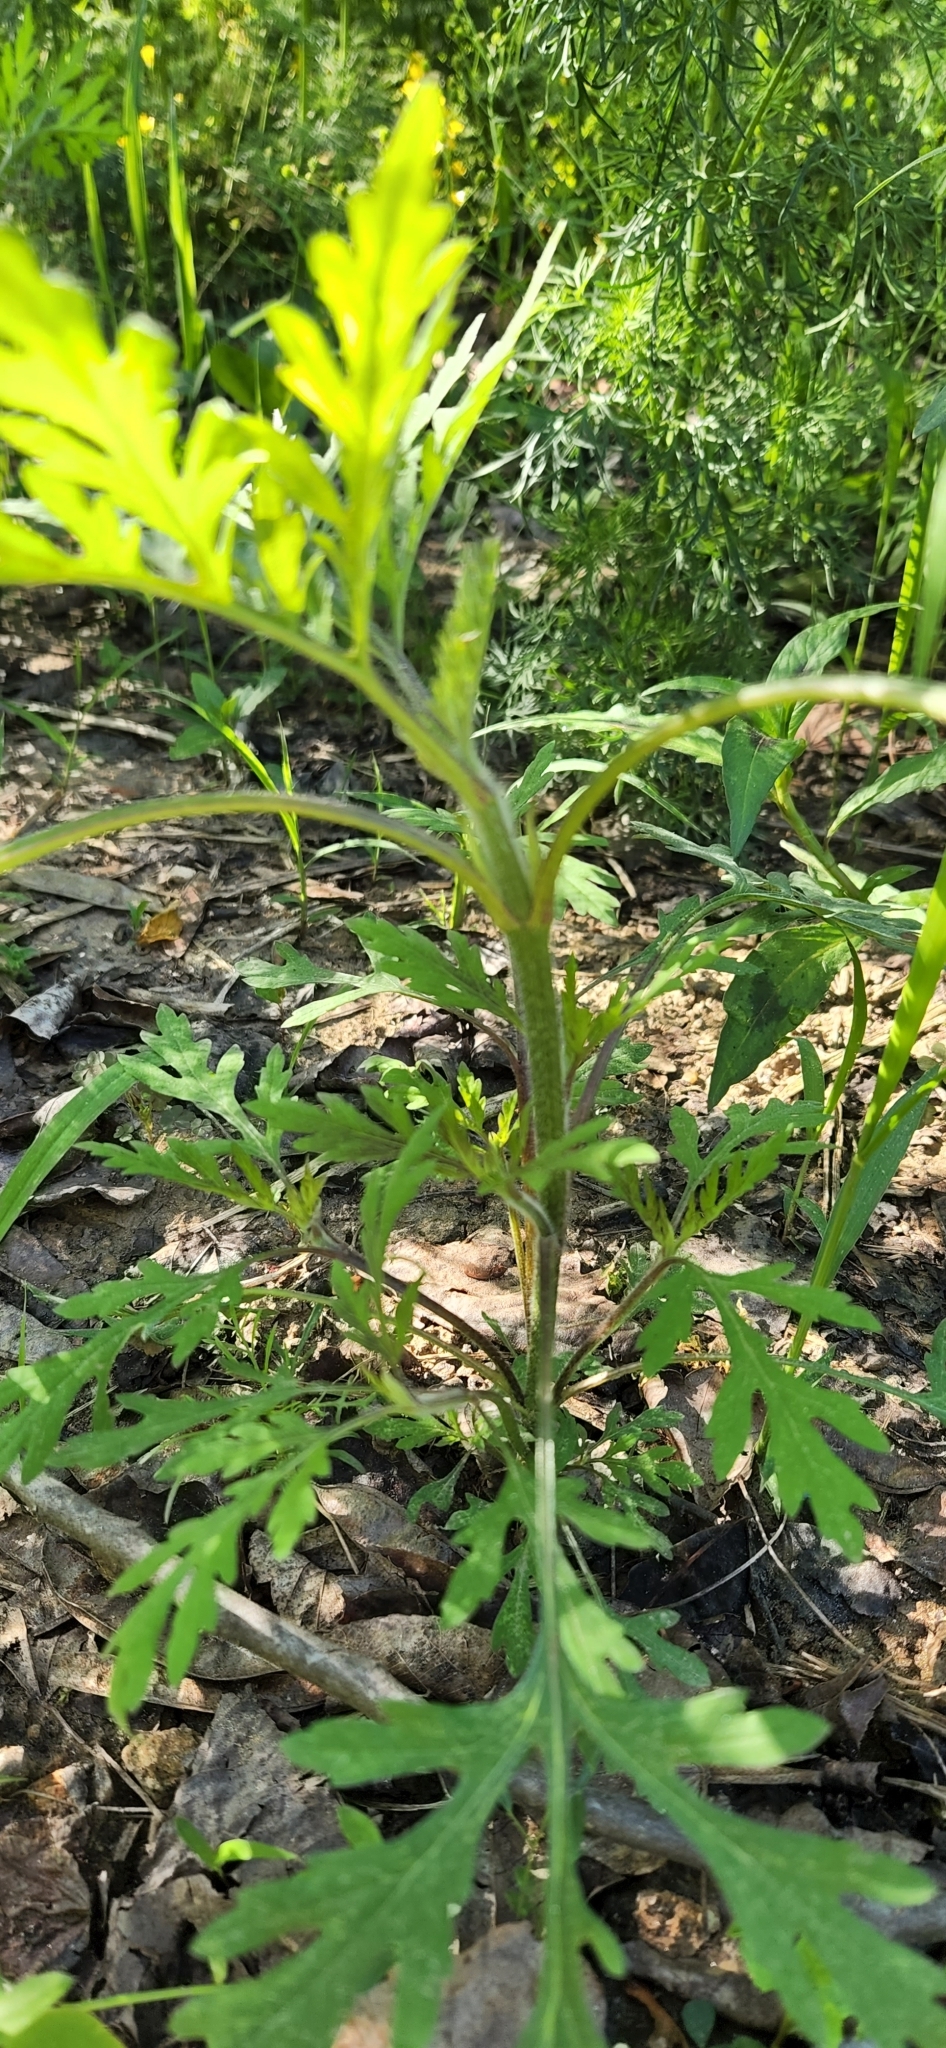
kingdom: Plantae
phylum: Tracheophyta
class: Magnoliopsida
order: Asterales
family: Asteraceae
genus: Ambrosia
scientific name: Ambrosia artemisiifolia
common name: Annual ragweed
